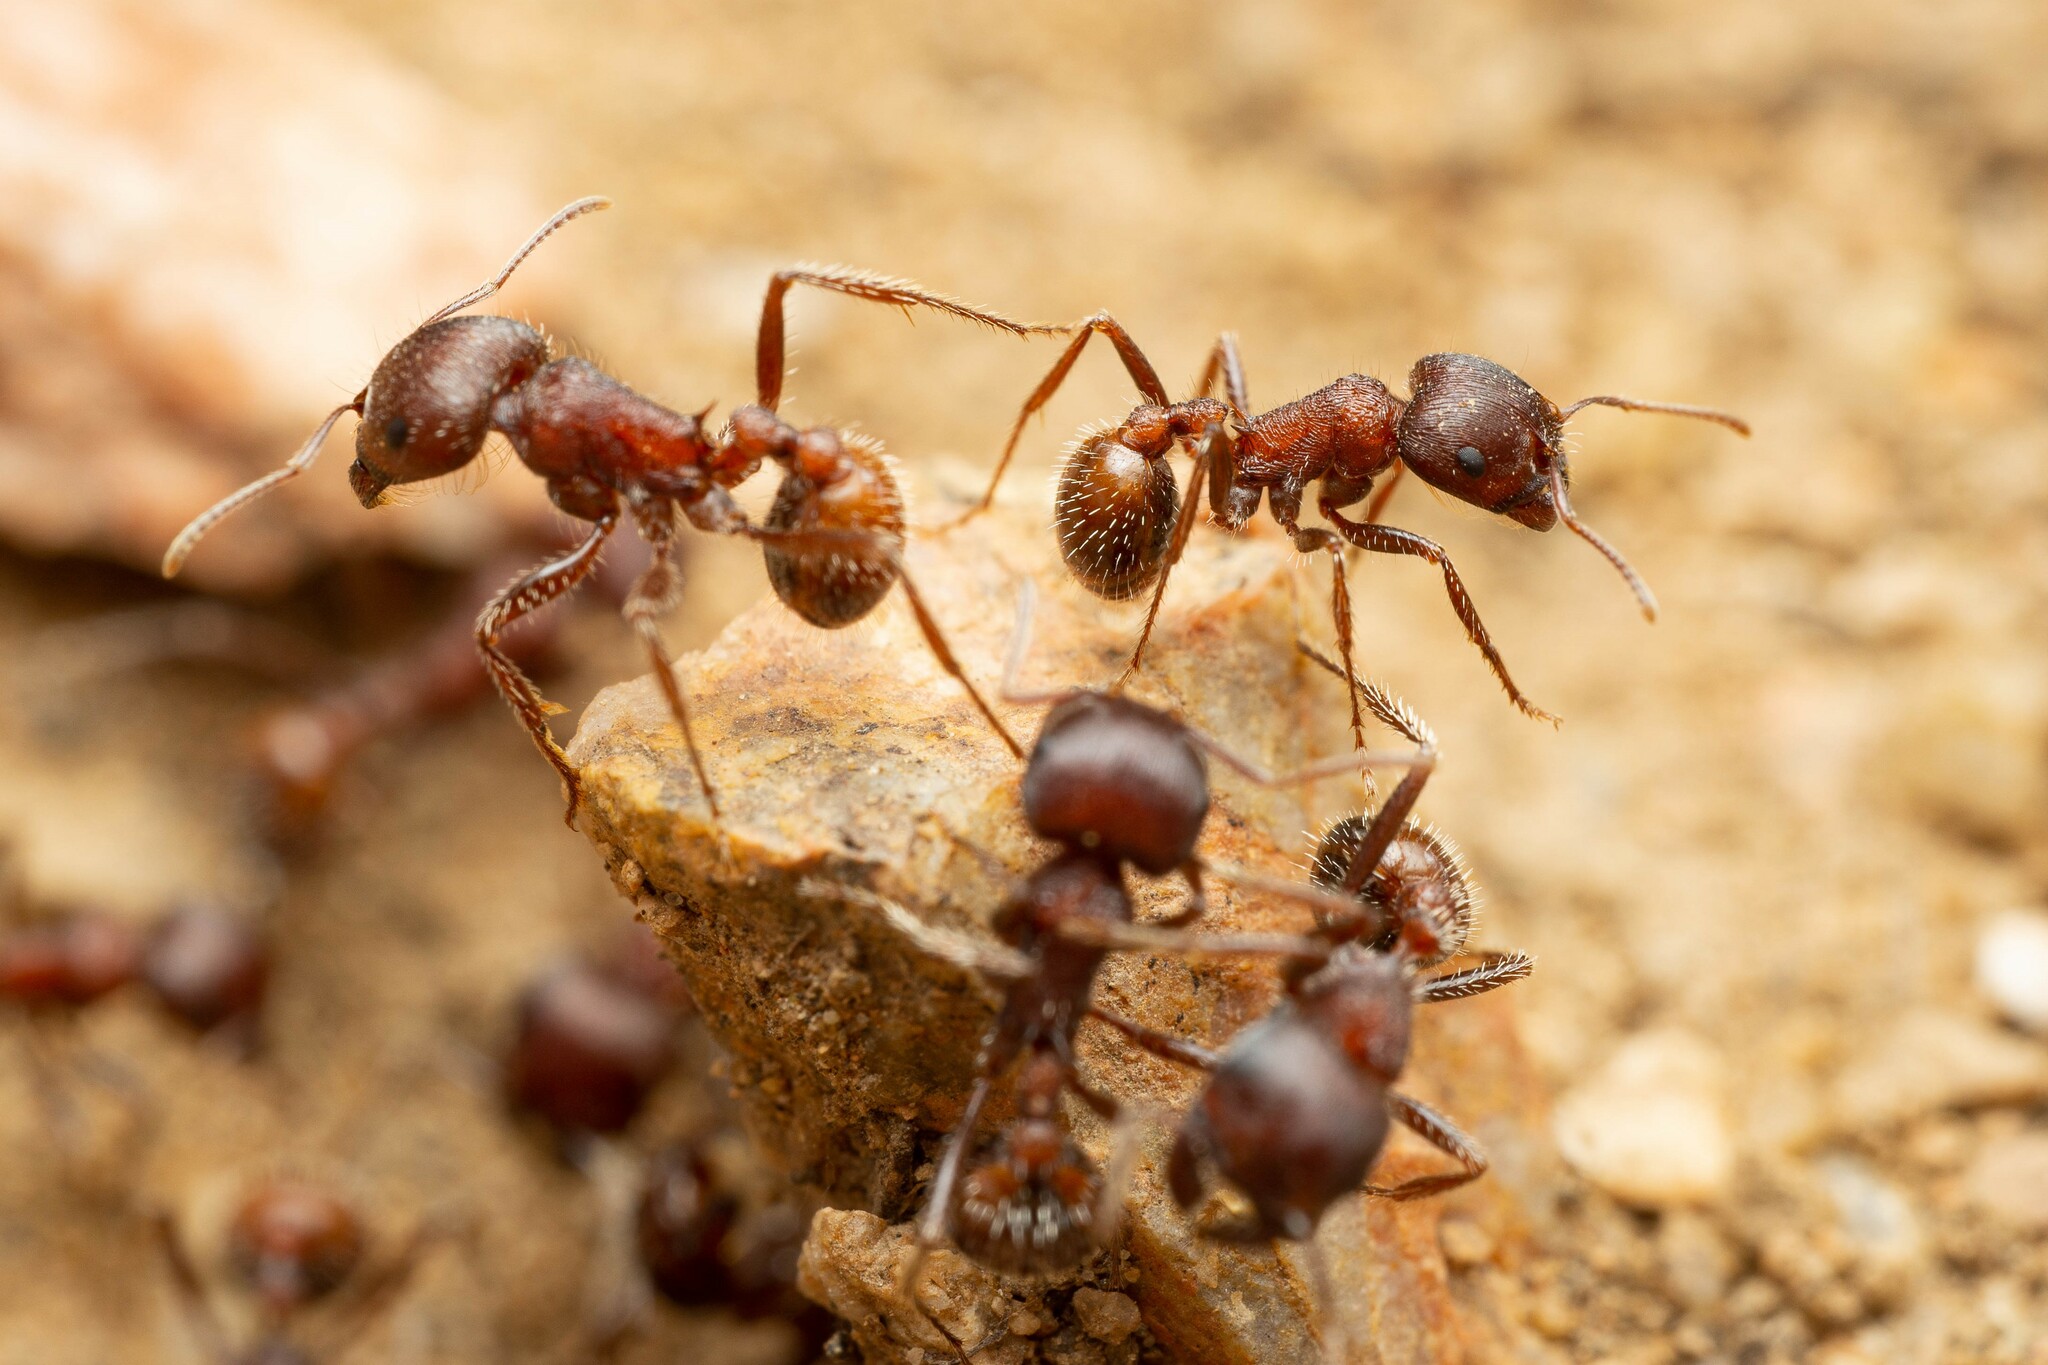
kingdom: Animalia
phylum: Arthropoda
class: Insecta
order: Hymenoptera
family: Formicidae
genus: Pogonomyrmex
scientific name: Pogonomyrmex rugosus
